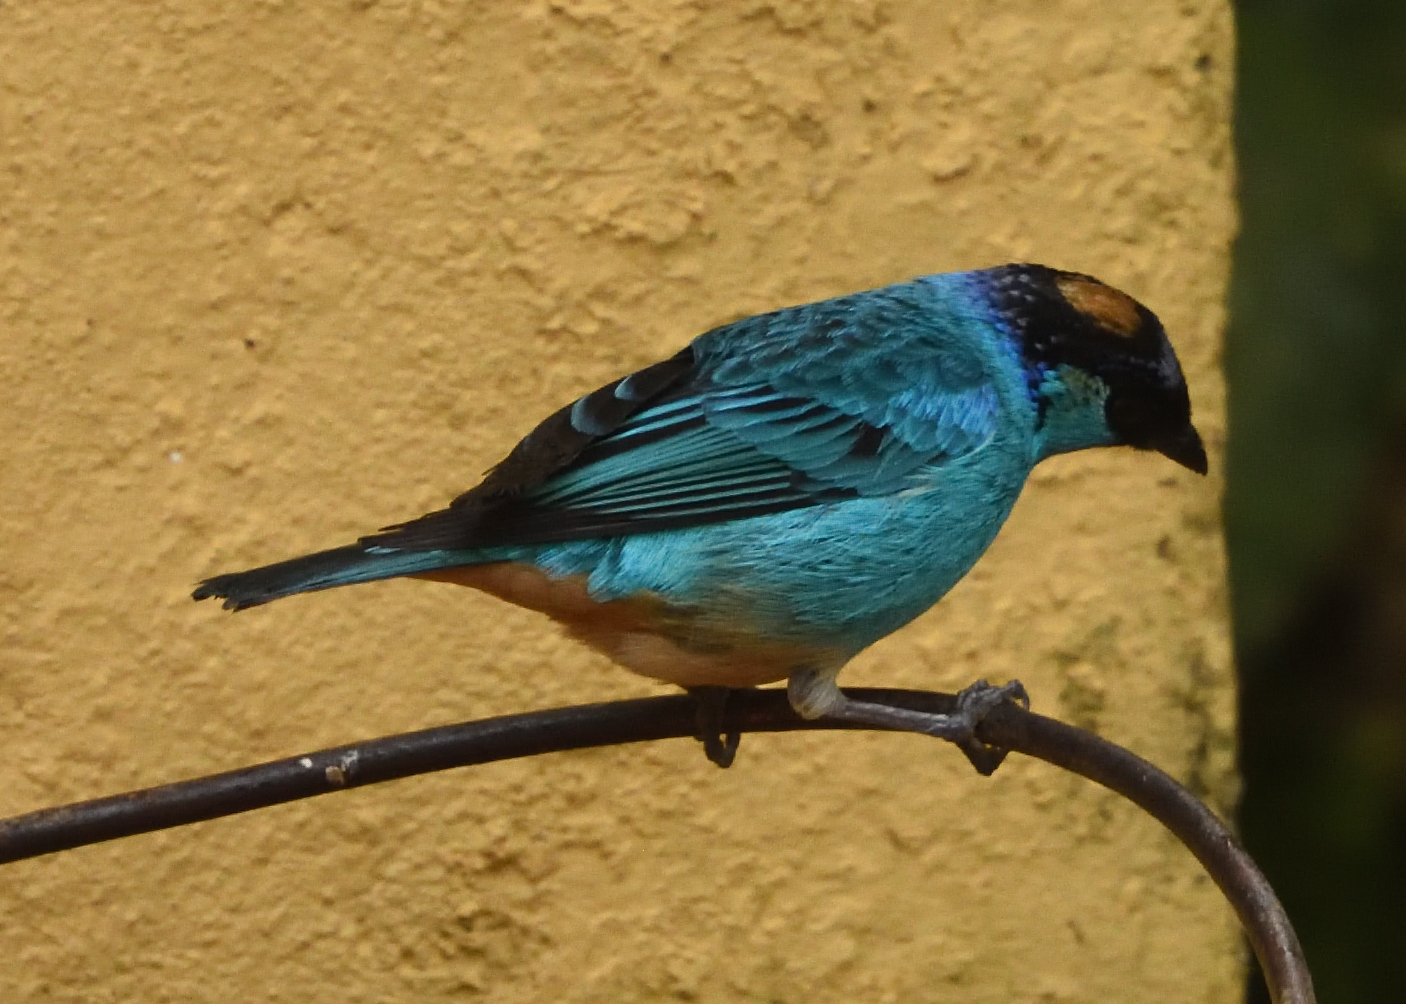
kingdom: Animalia
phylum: Chordata
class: Aves
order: Passeriformes
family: Thraupidae
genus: Chalcothraupis
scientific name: Chalcothraupis ruficervix
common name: Golden-naped tanager
